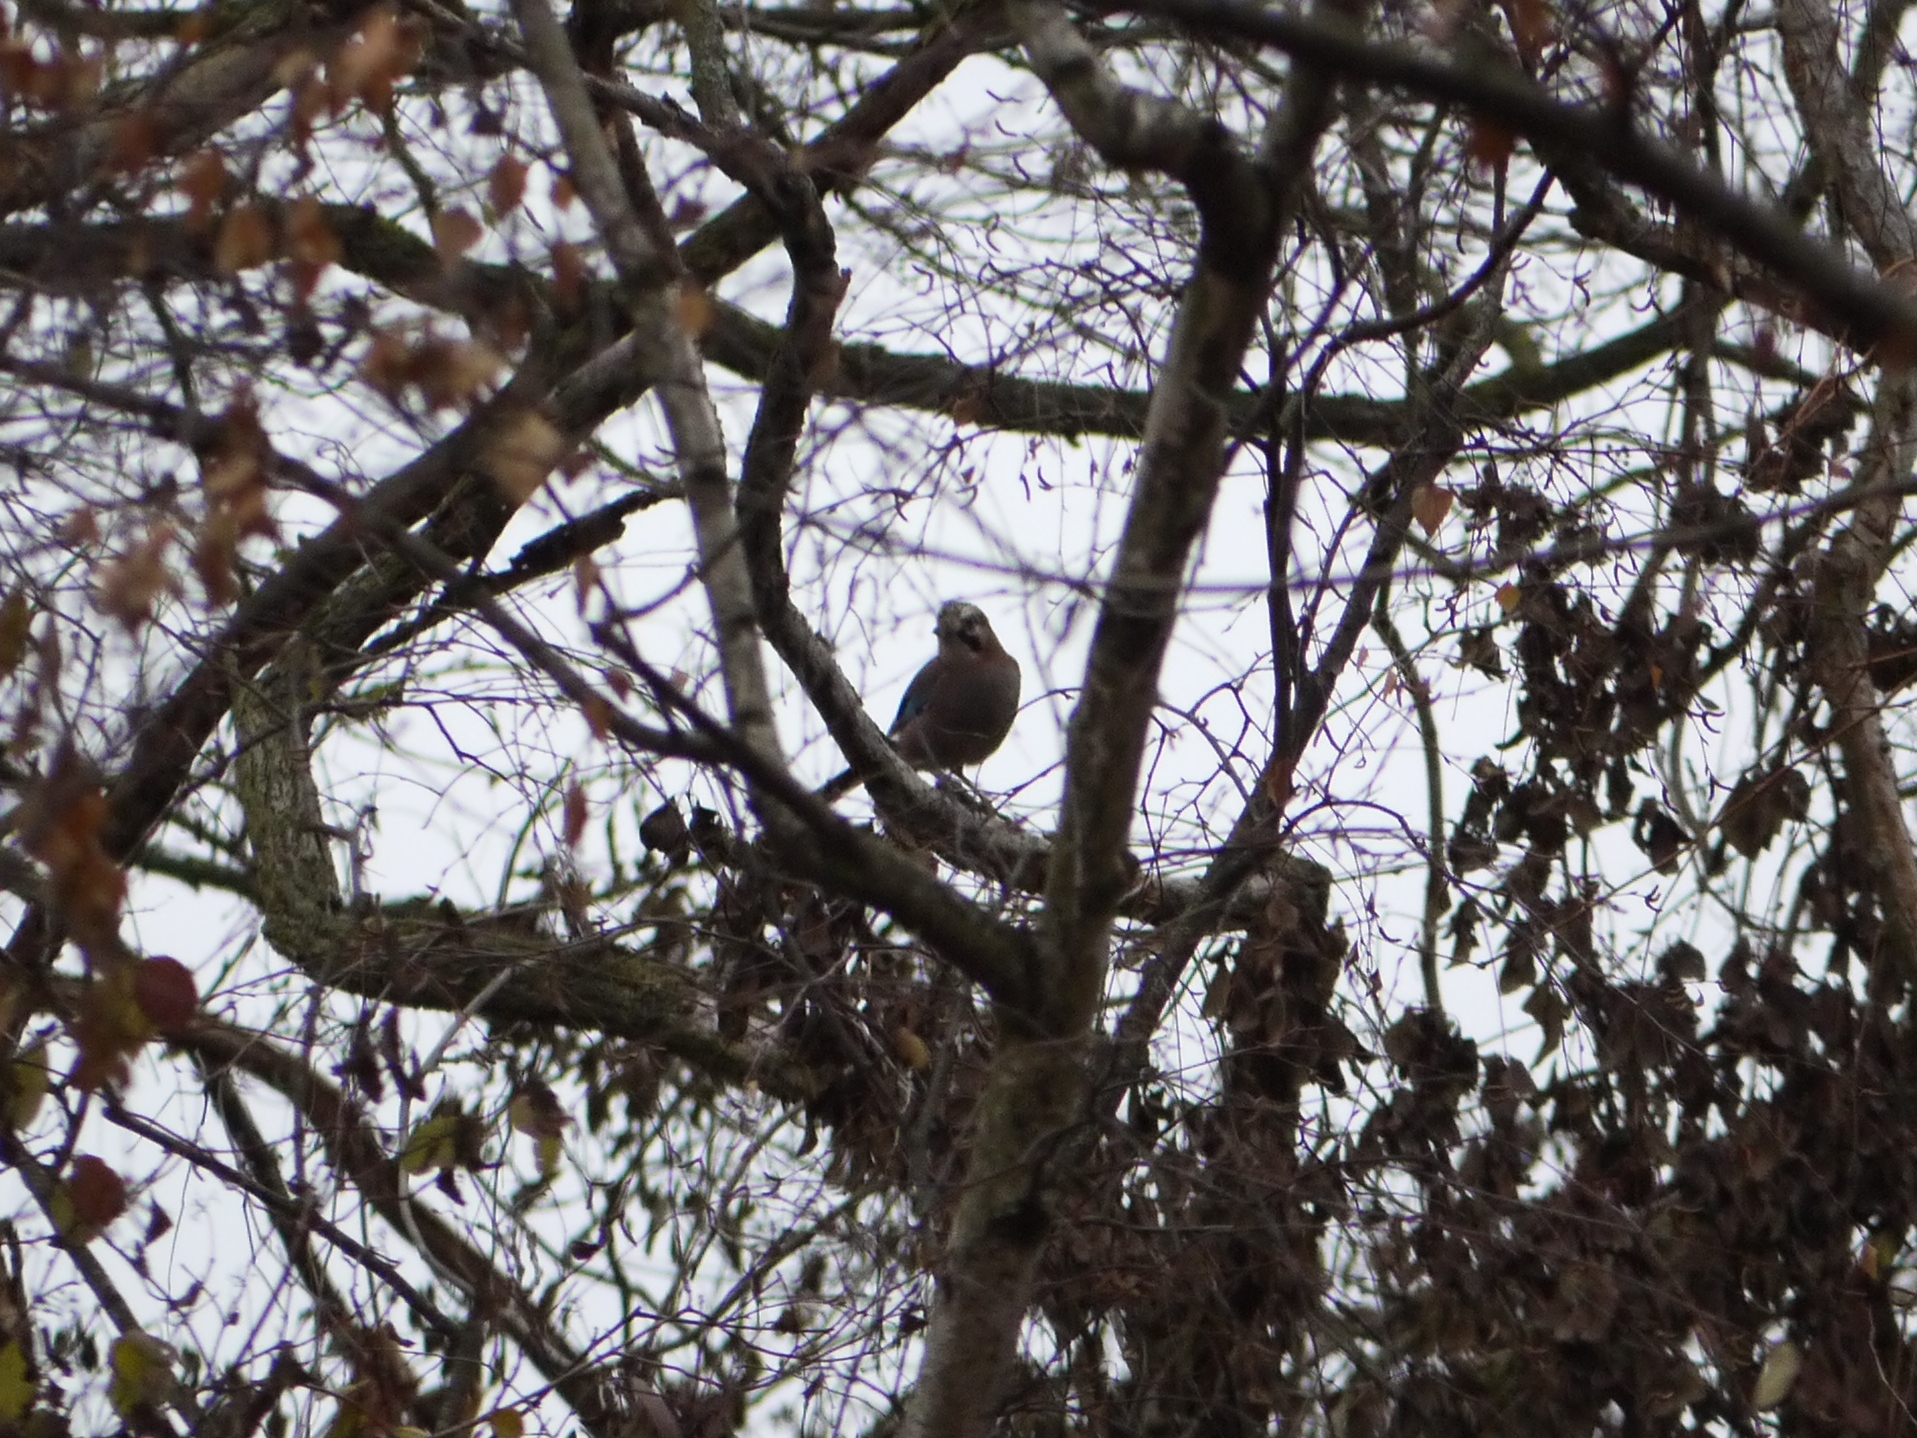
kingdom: Animalia
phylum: Chordata
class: Aves
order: Passeriformes
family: Corvidae
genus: Garrulus
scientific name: Garrulus glandarius
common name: Eurasian jay
